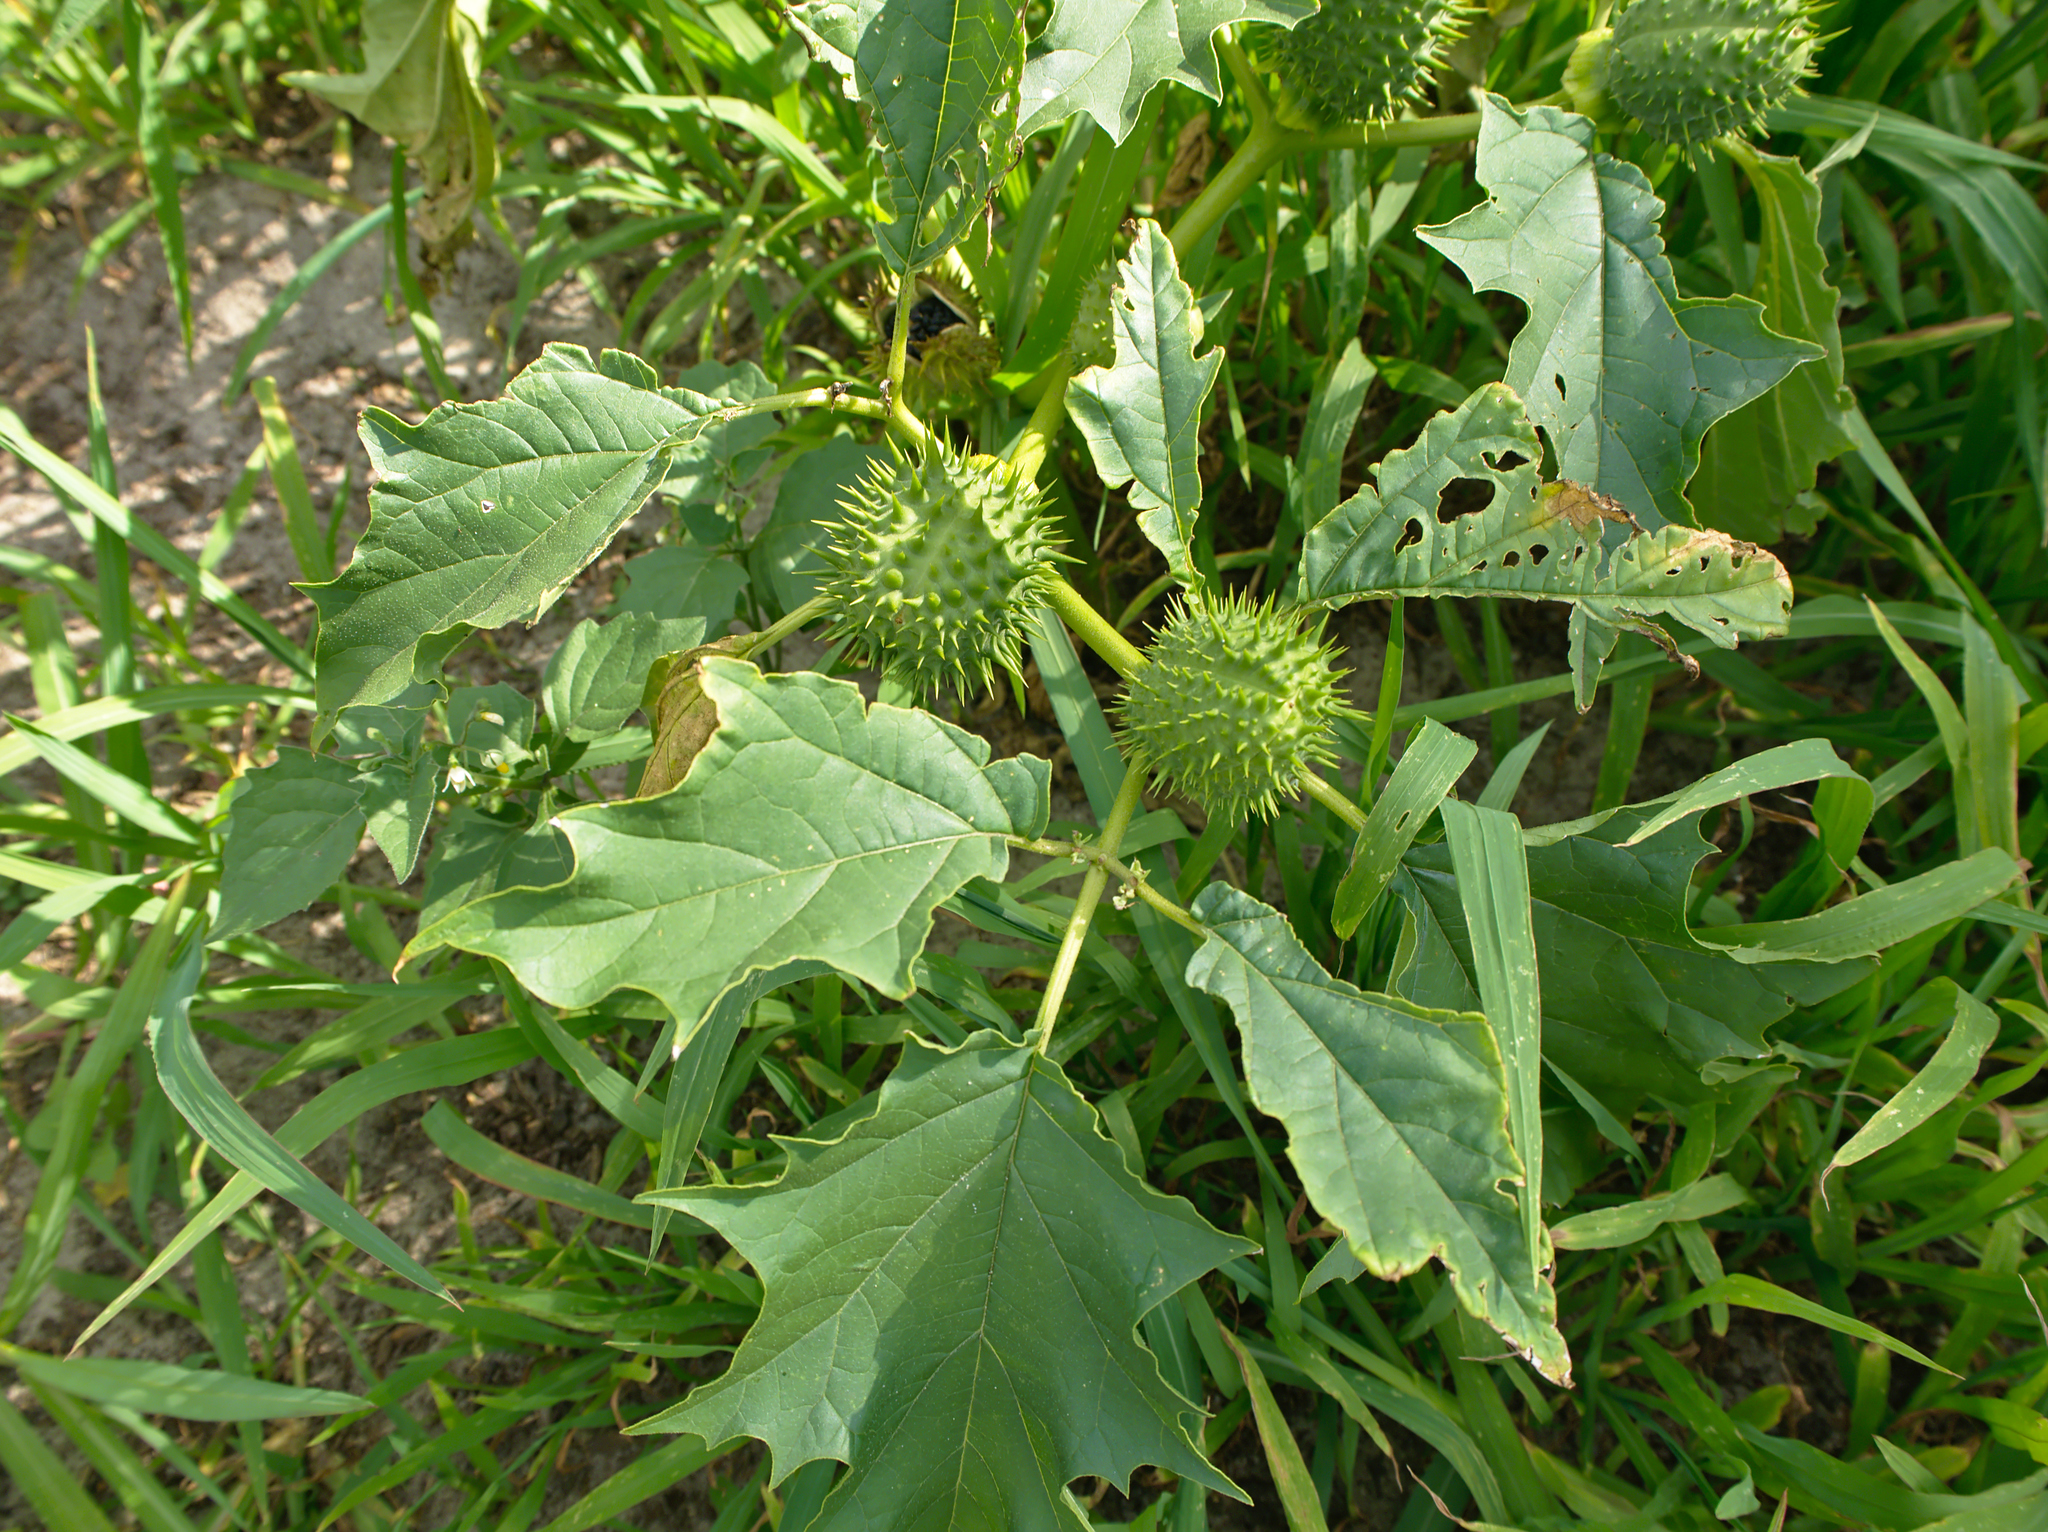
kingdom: Plantae
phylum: Tracheophyta
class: Magnoliopsida
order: Solanales
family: Solanaceae
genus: Datura
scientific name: Datura stramonium
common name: Thorn-apple
